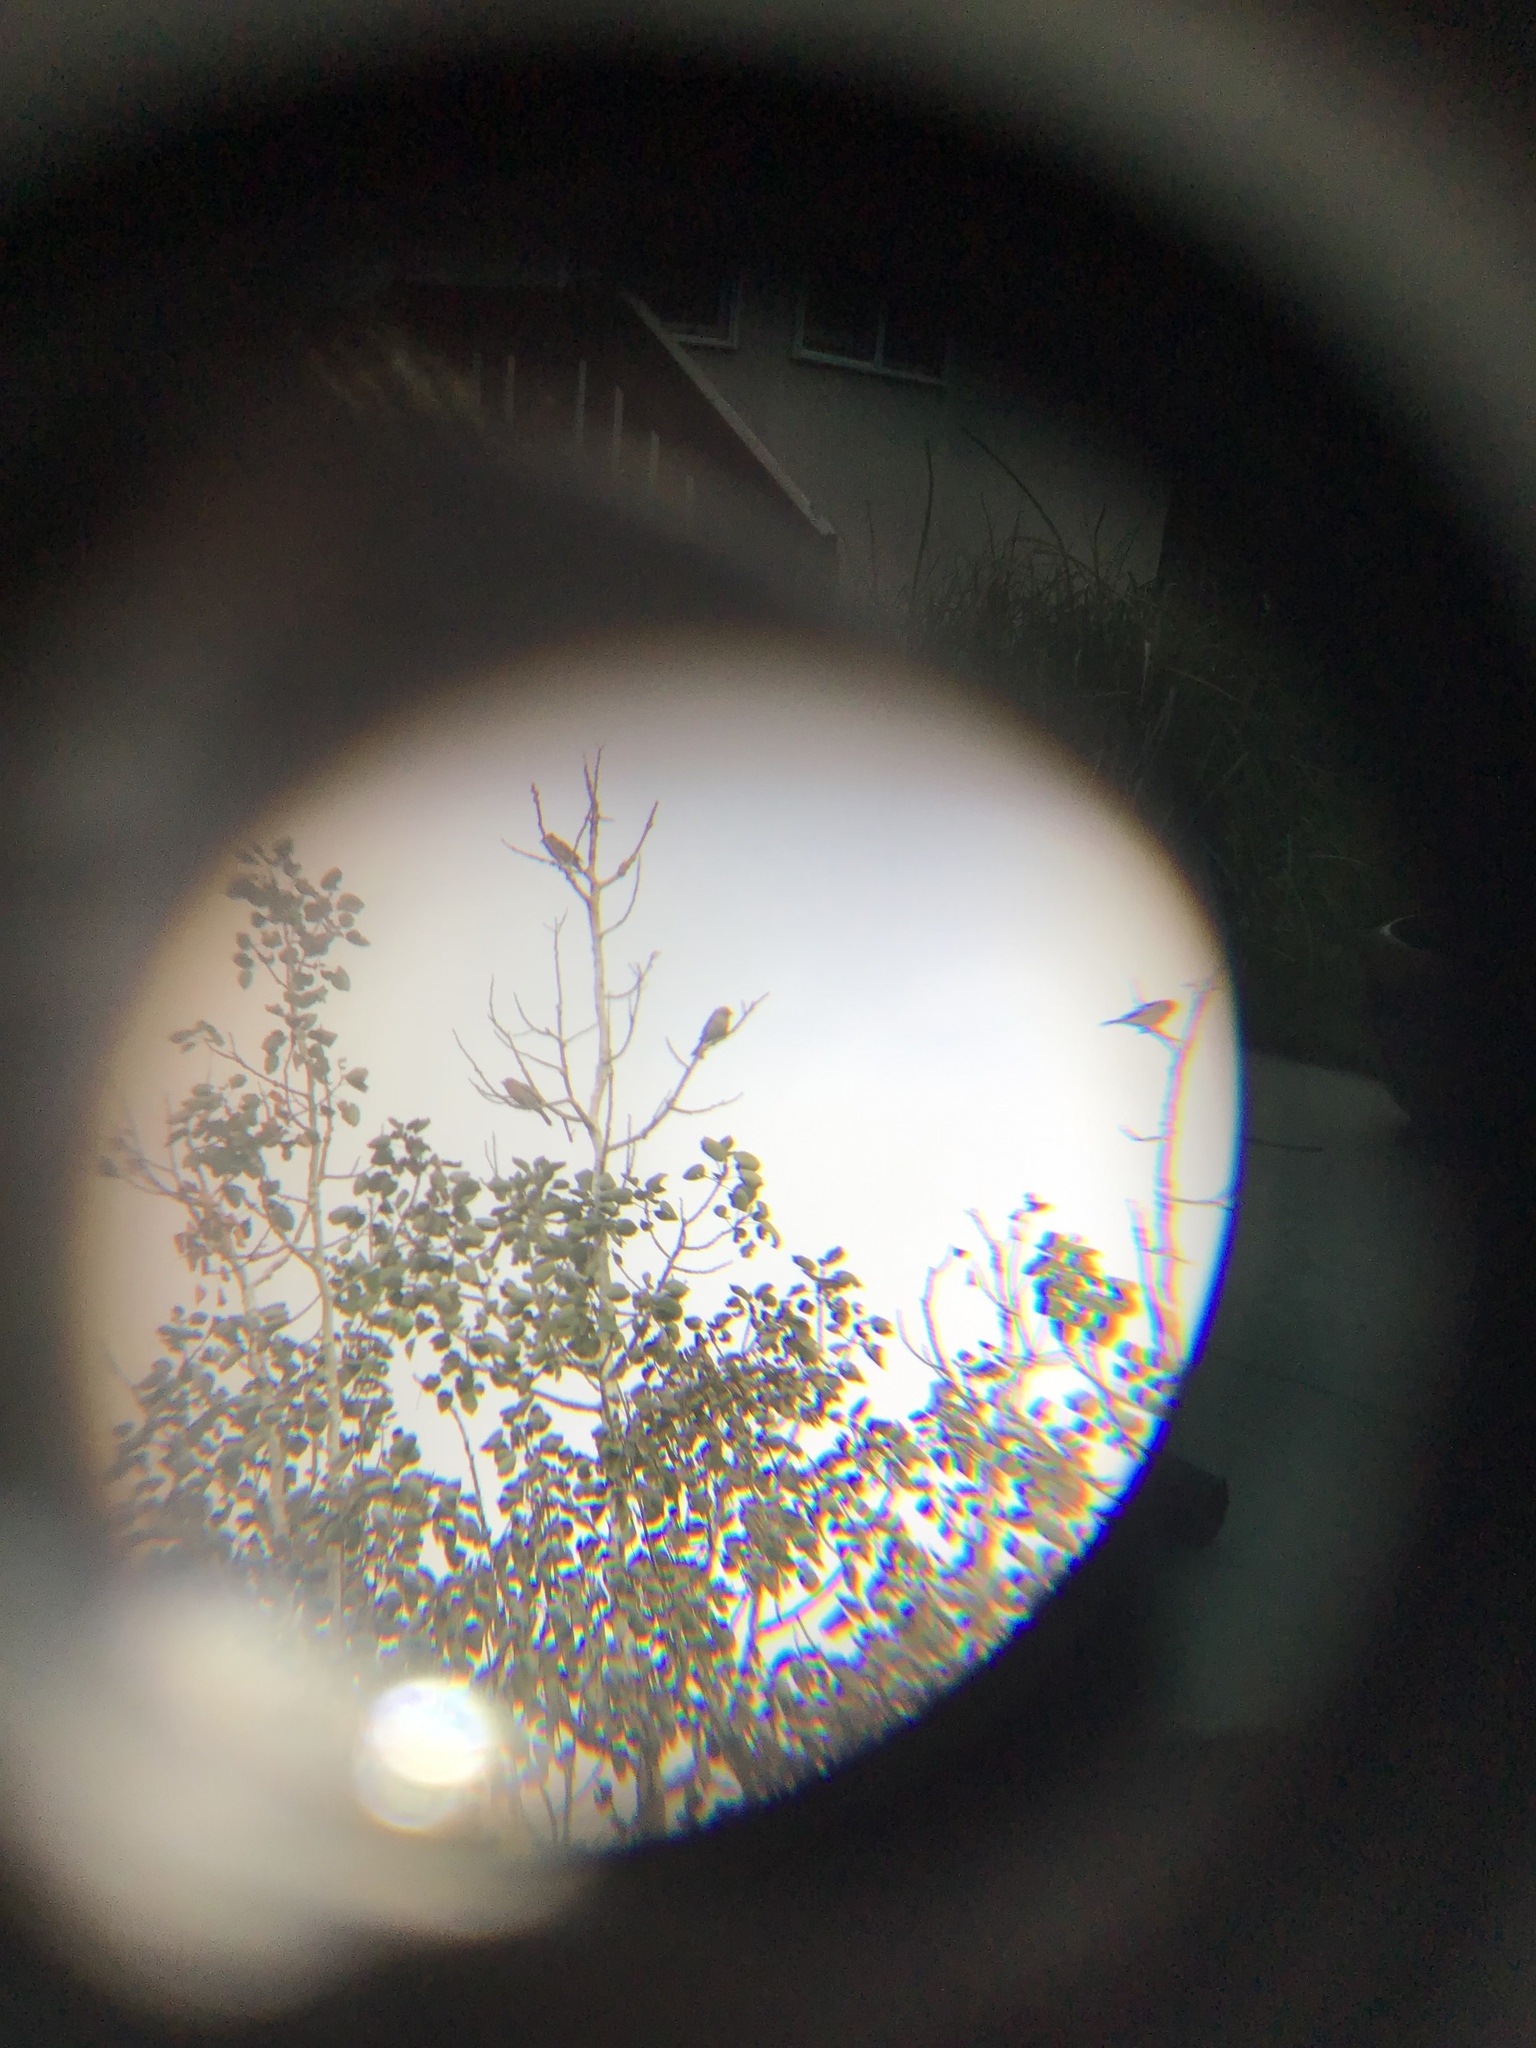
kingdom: Animalia
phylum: Chordata
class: Aves
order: Passeriformes
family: Fringillidae
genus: Haemorhous
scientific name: Haemorhous mexicanus
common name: House finch
